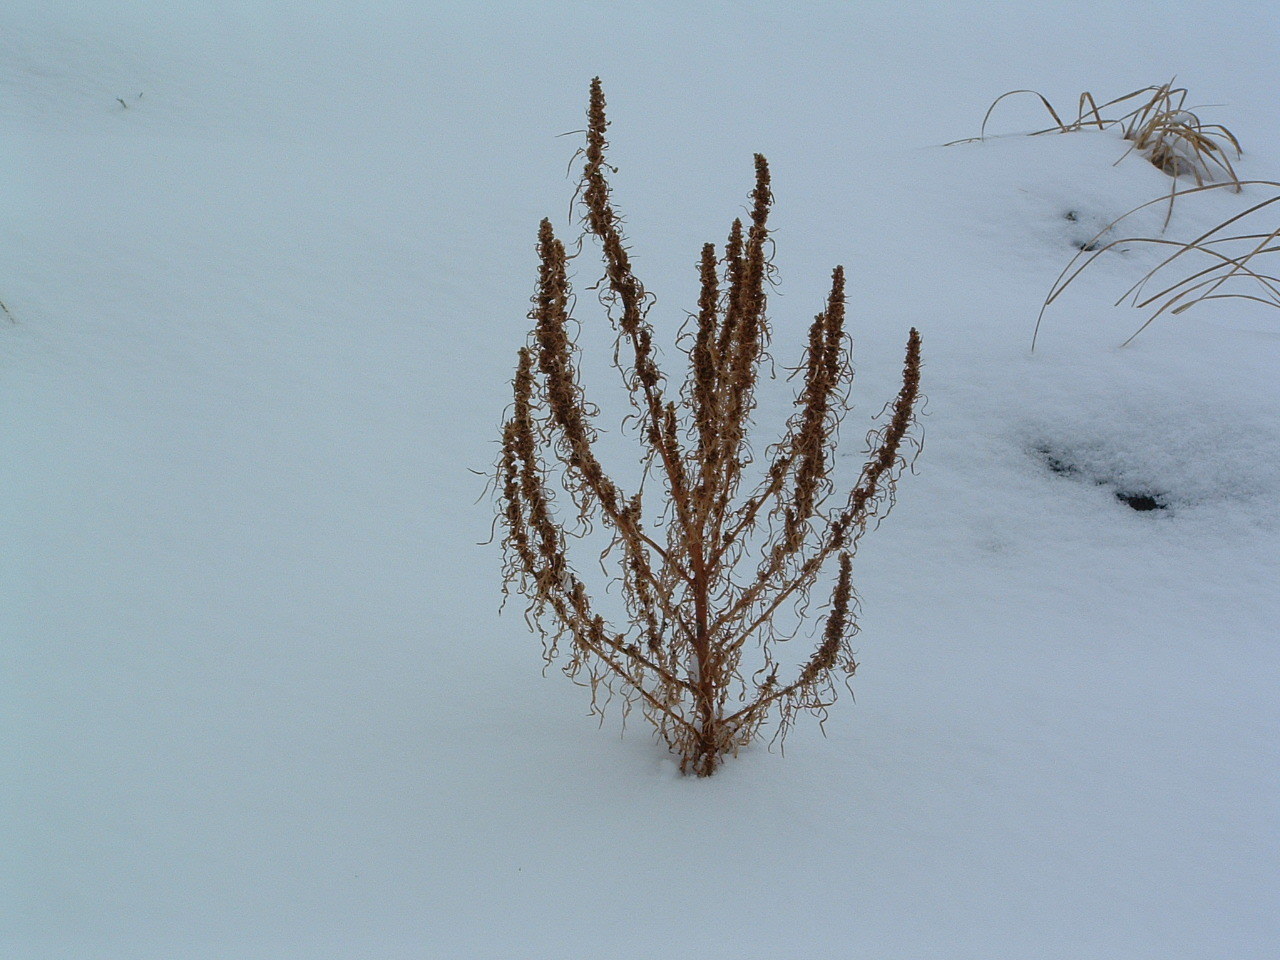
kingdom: Plantae
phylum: Tracheophyta
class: Magnoliopsida
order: Asterales
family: Asteraceae
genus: Artemisia
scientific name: Artemisia biennis
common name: Biennial wormwood
